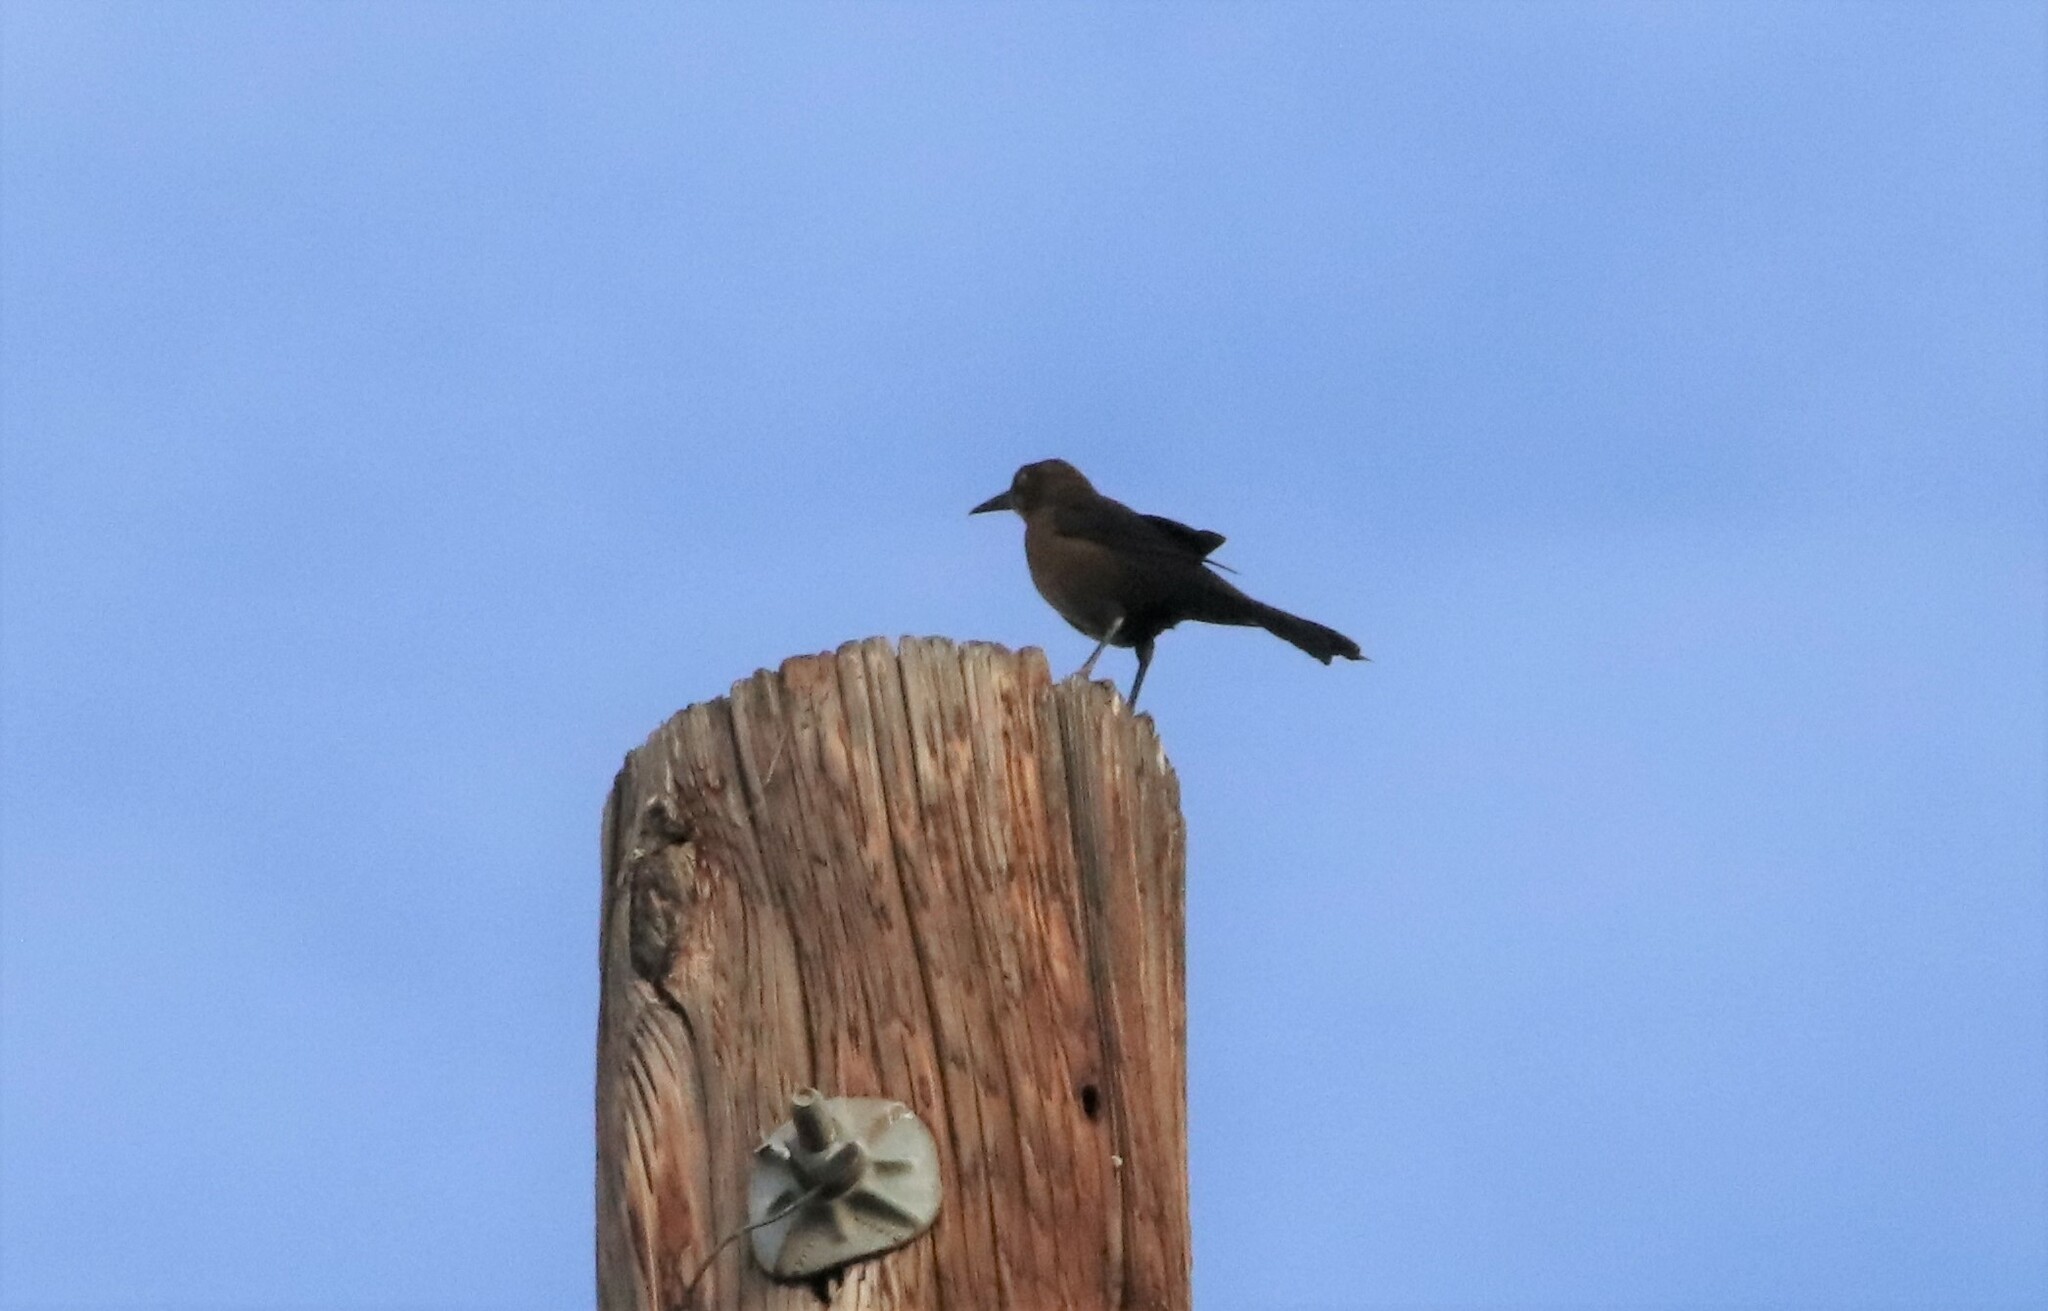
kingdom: Animalia
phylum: Chordata
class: Aves
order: Passeriformes
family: Icteridae
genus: Quiscalus
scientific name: Quiscalus mexicanus
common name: Great-tailed grackle
